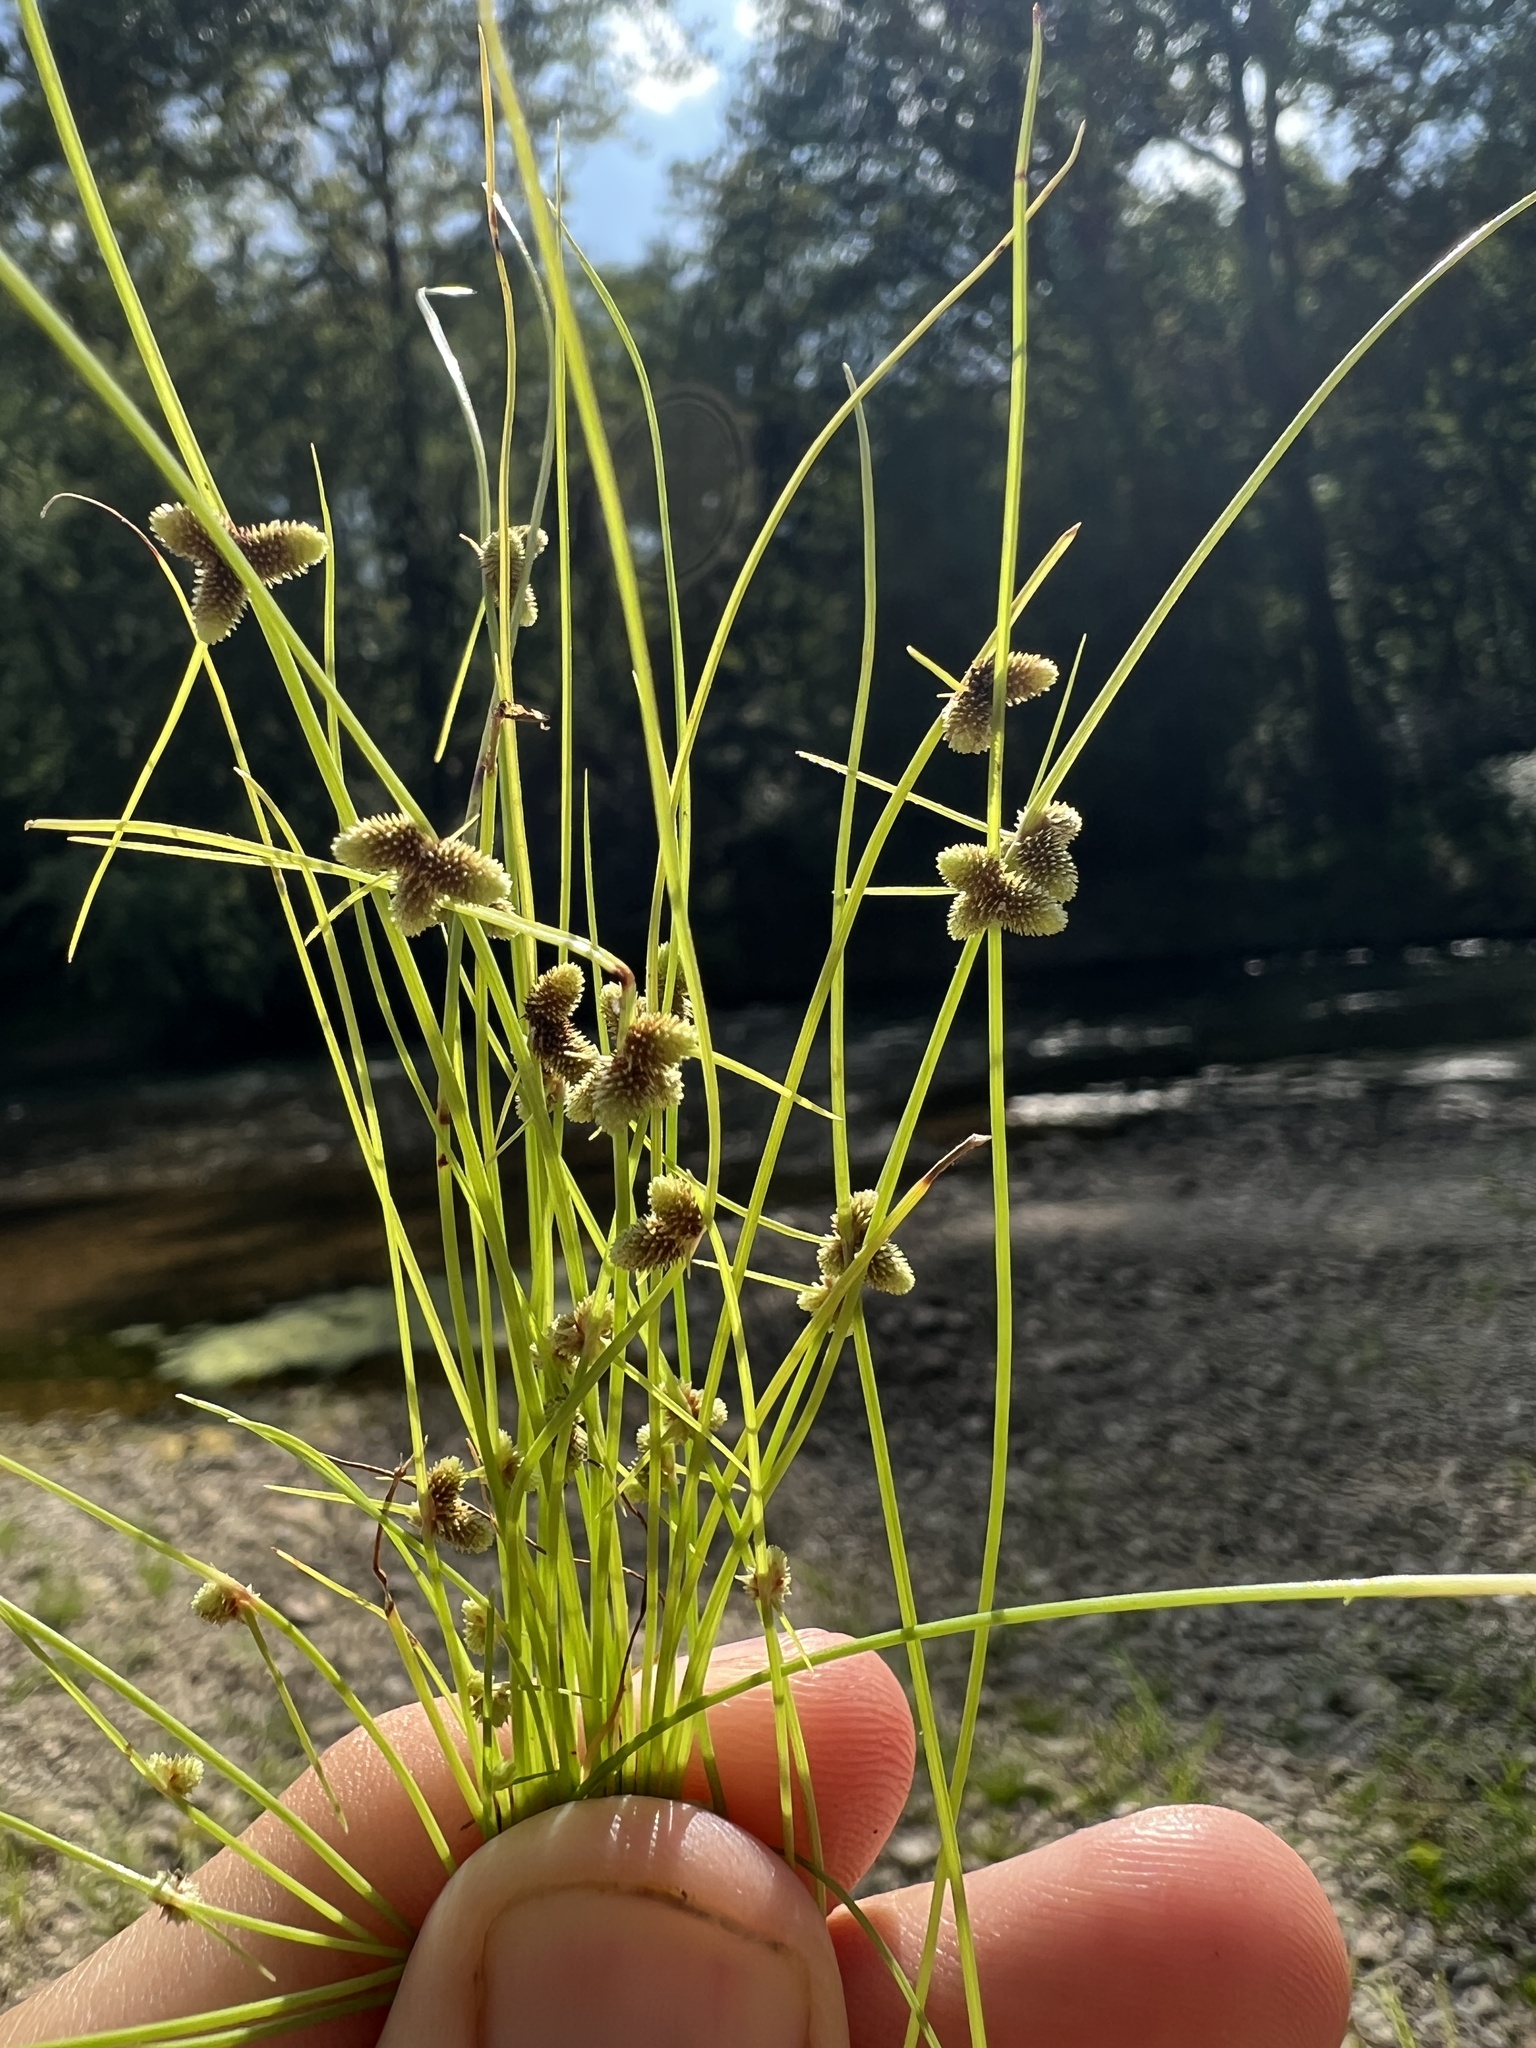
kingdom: Plantae
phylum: Tracheophyta
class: Liliopsida
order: Poales
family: Cyperaceae
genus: Cyperus
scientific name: Cyperus subsquarrosus
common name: Dwarf bulrush
